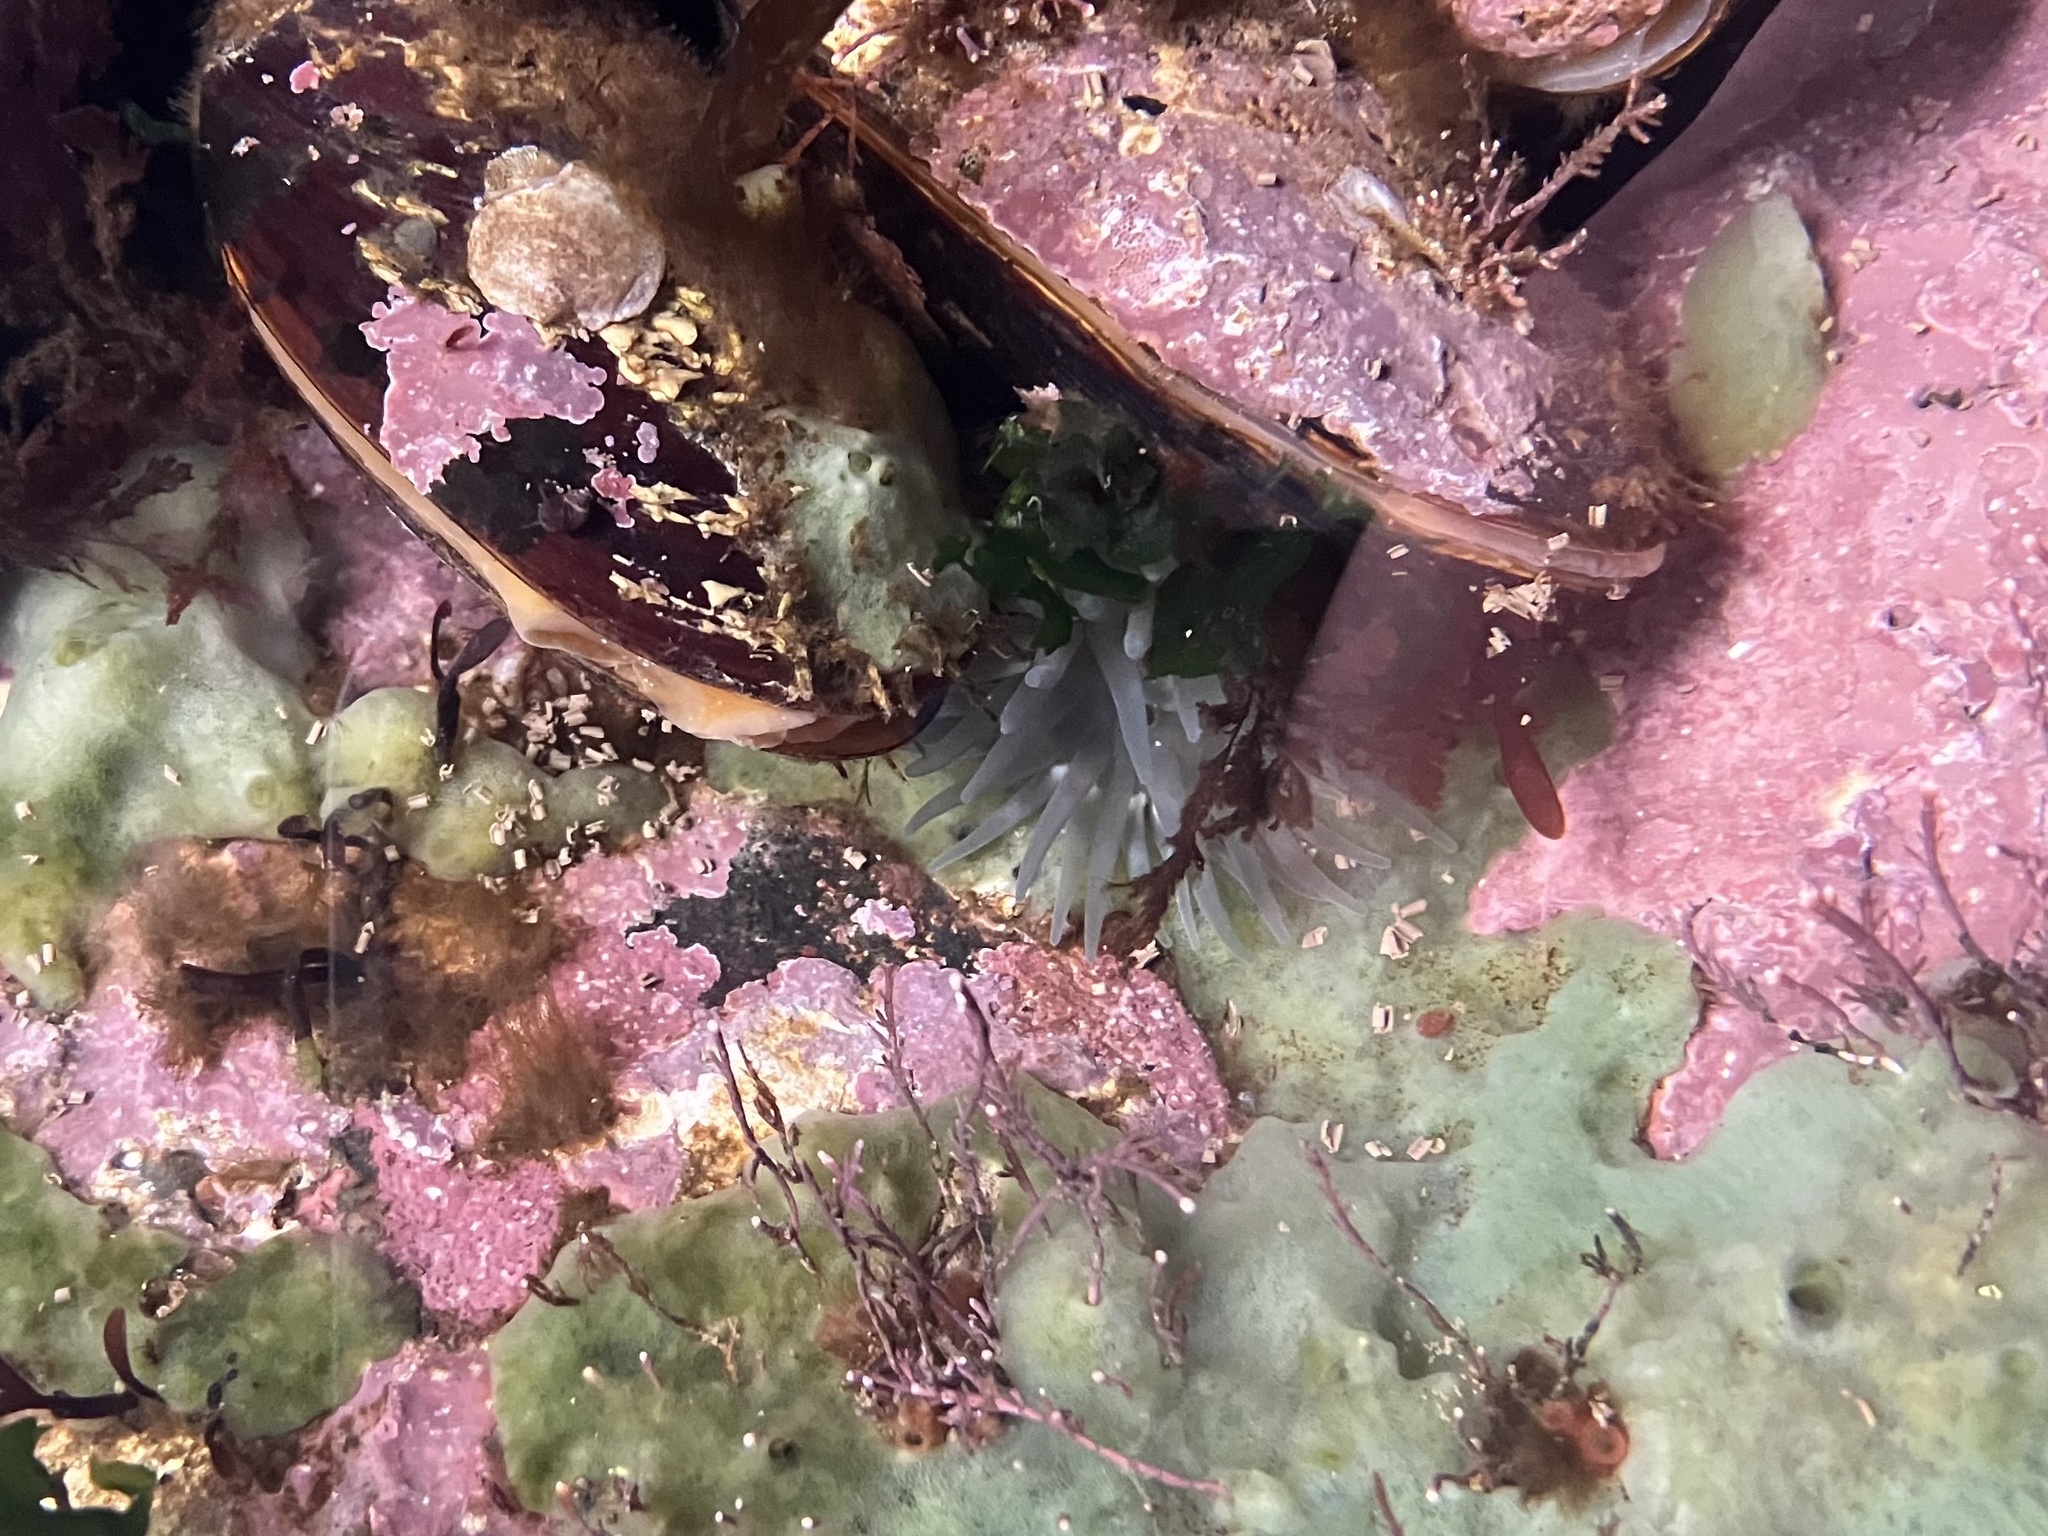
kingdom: Animalia
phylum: Cnidaria
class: Anthozoa
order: Actiniaria
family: Actiniidae
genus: Aulactinia
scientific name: Aulactinia stella
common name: Silver-spotted sea anemone
